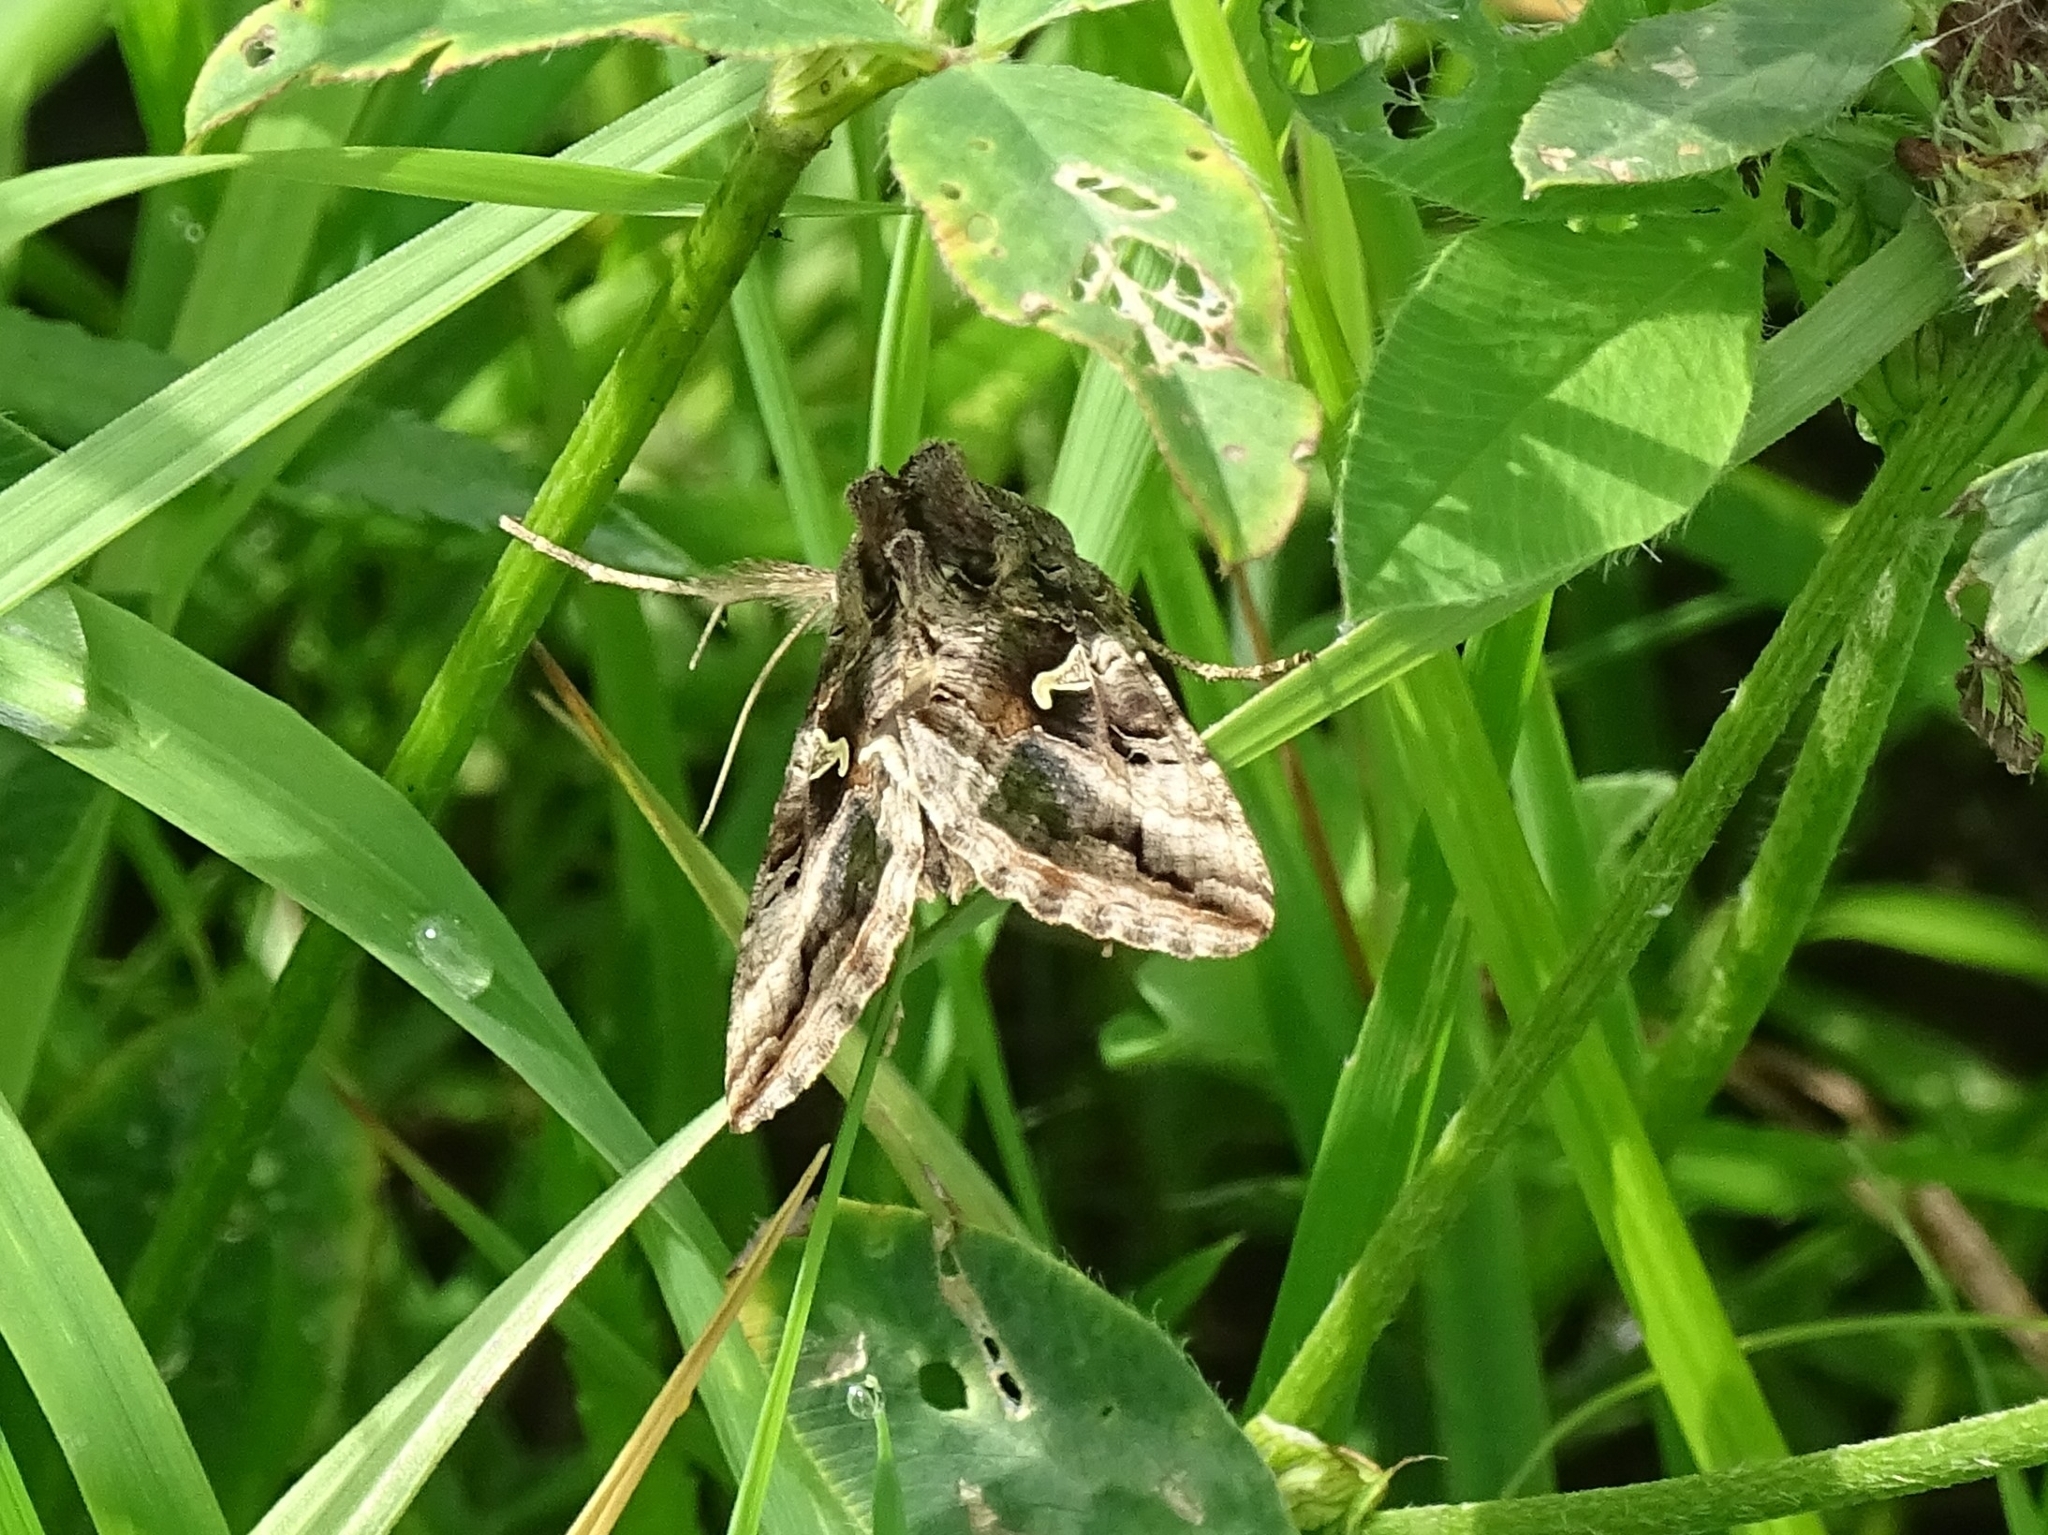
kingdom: Animalia
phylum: Arthropoda
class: Insecta
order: Lepidoptera
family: Noctuidae
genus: Autographa
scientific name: Autographa gamma
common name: Silver y
